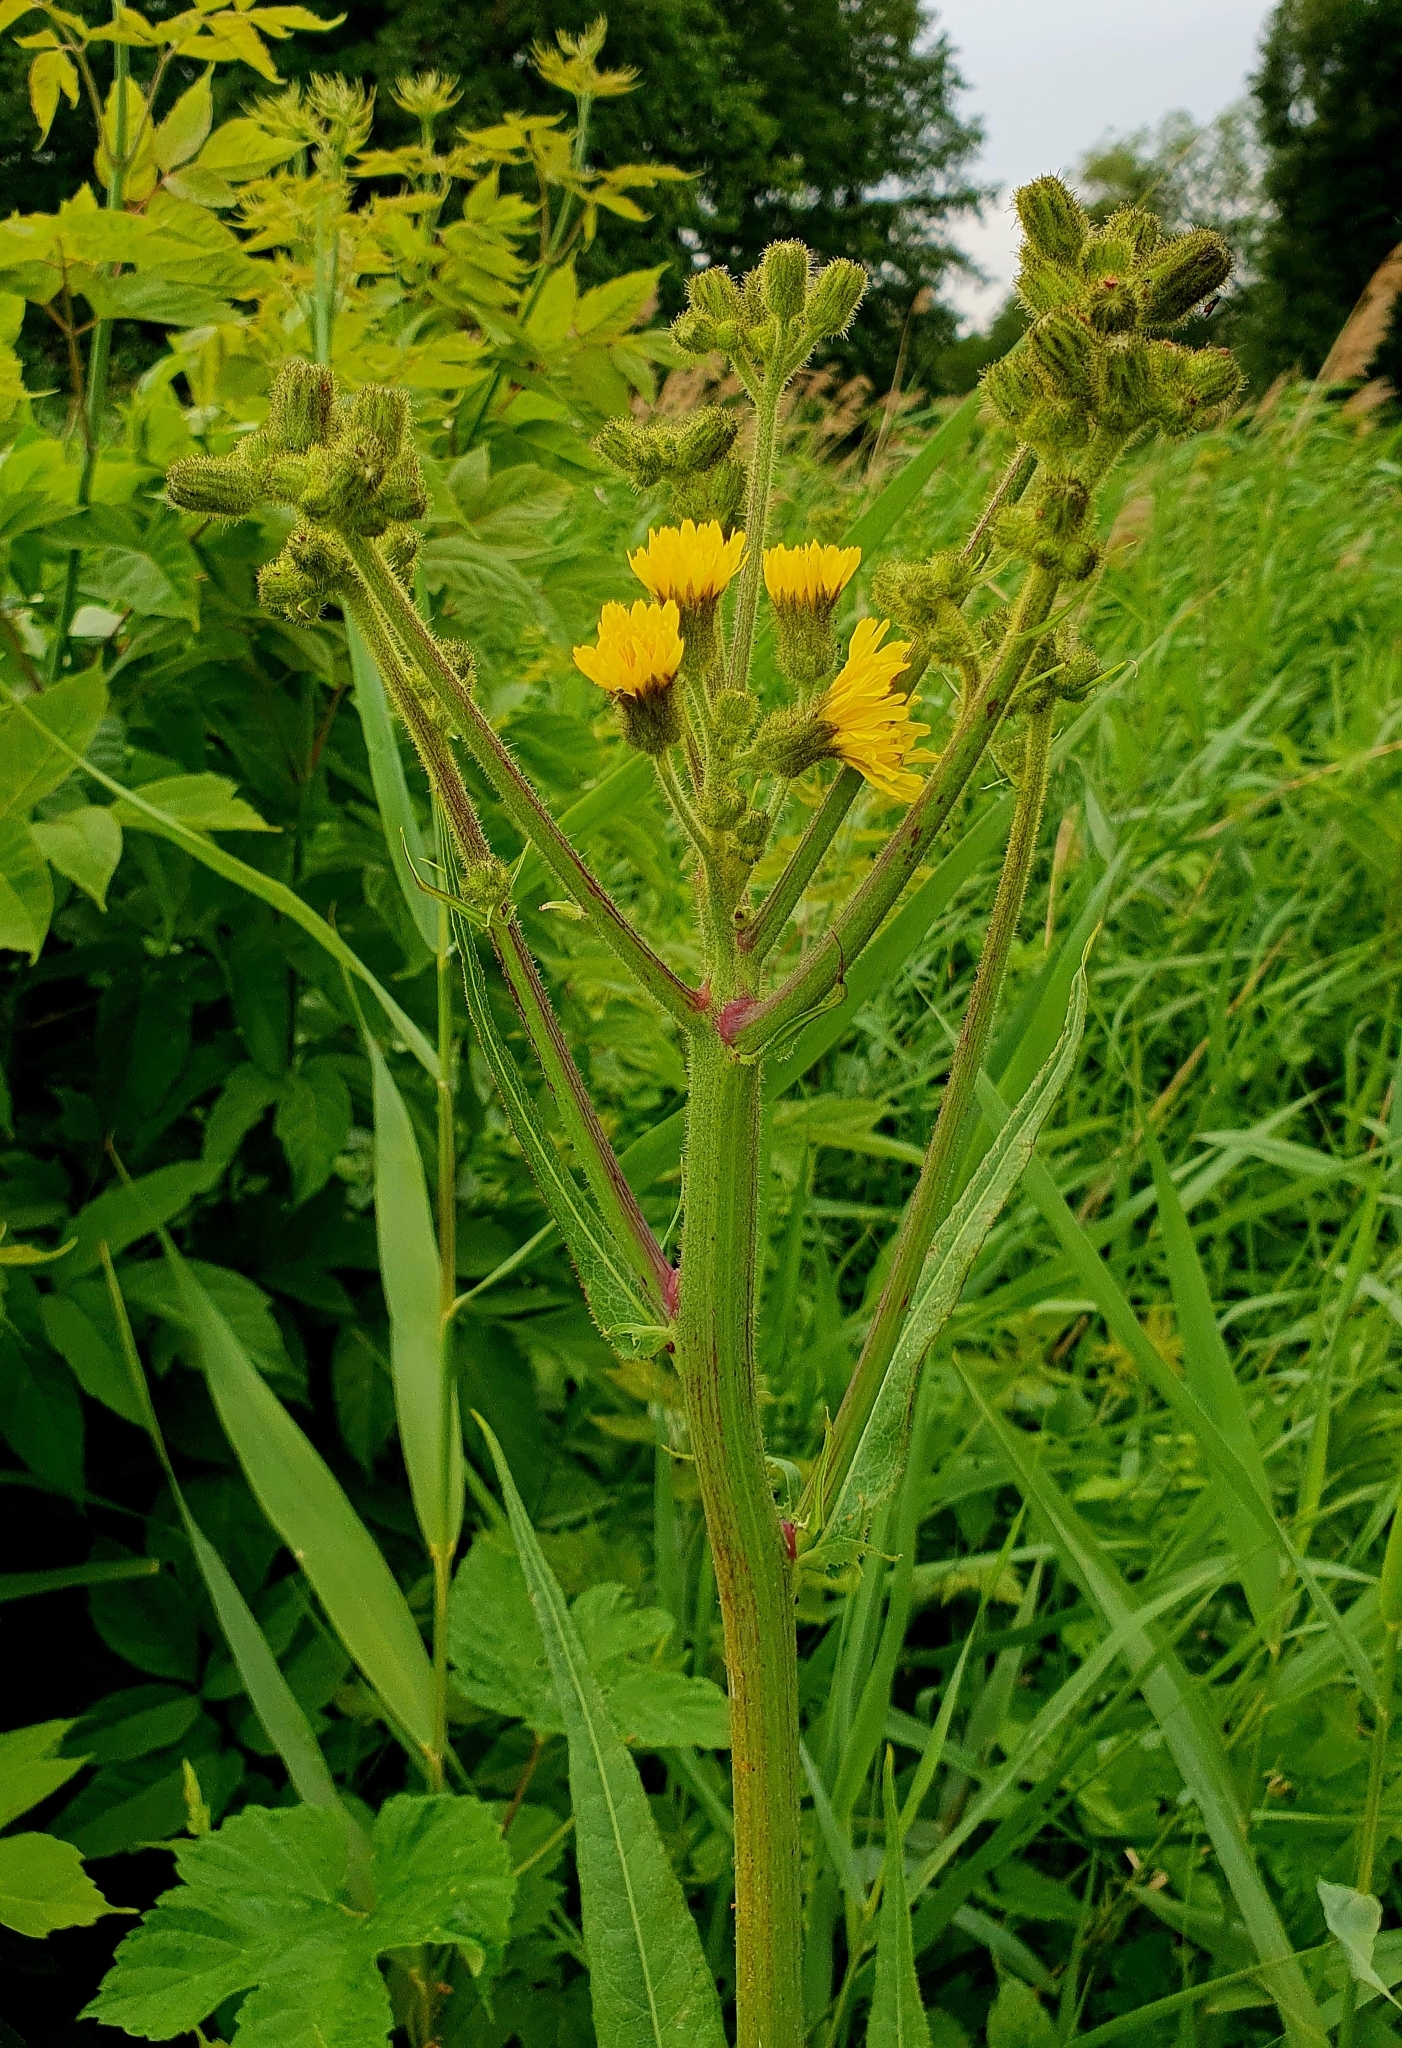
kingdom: Plantae
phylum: Tracheophyta
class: Magnoliopsida
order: Asterales
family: Asteraceae
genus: Sonchus
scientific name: Sonchus palustris
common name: Marsh sow-thistle
